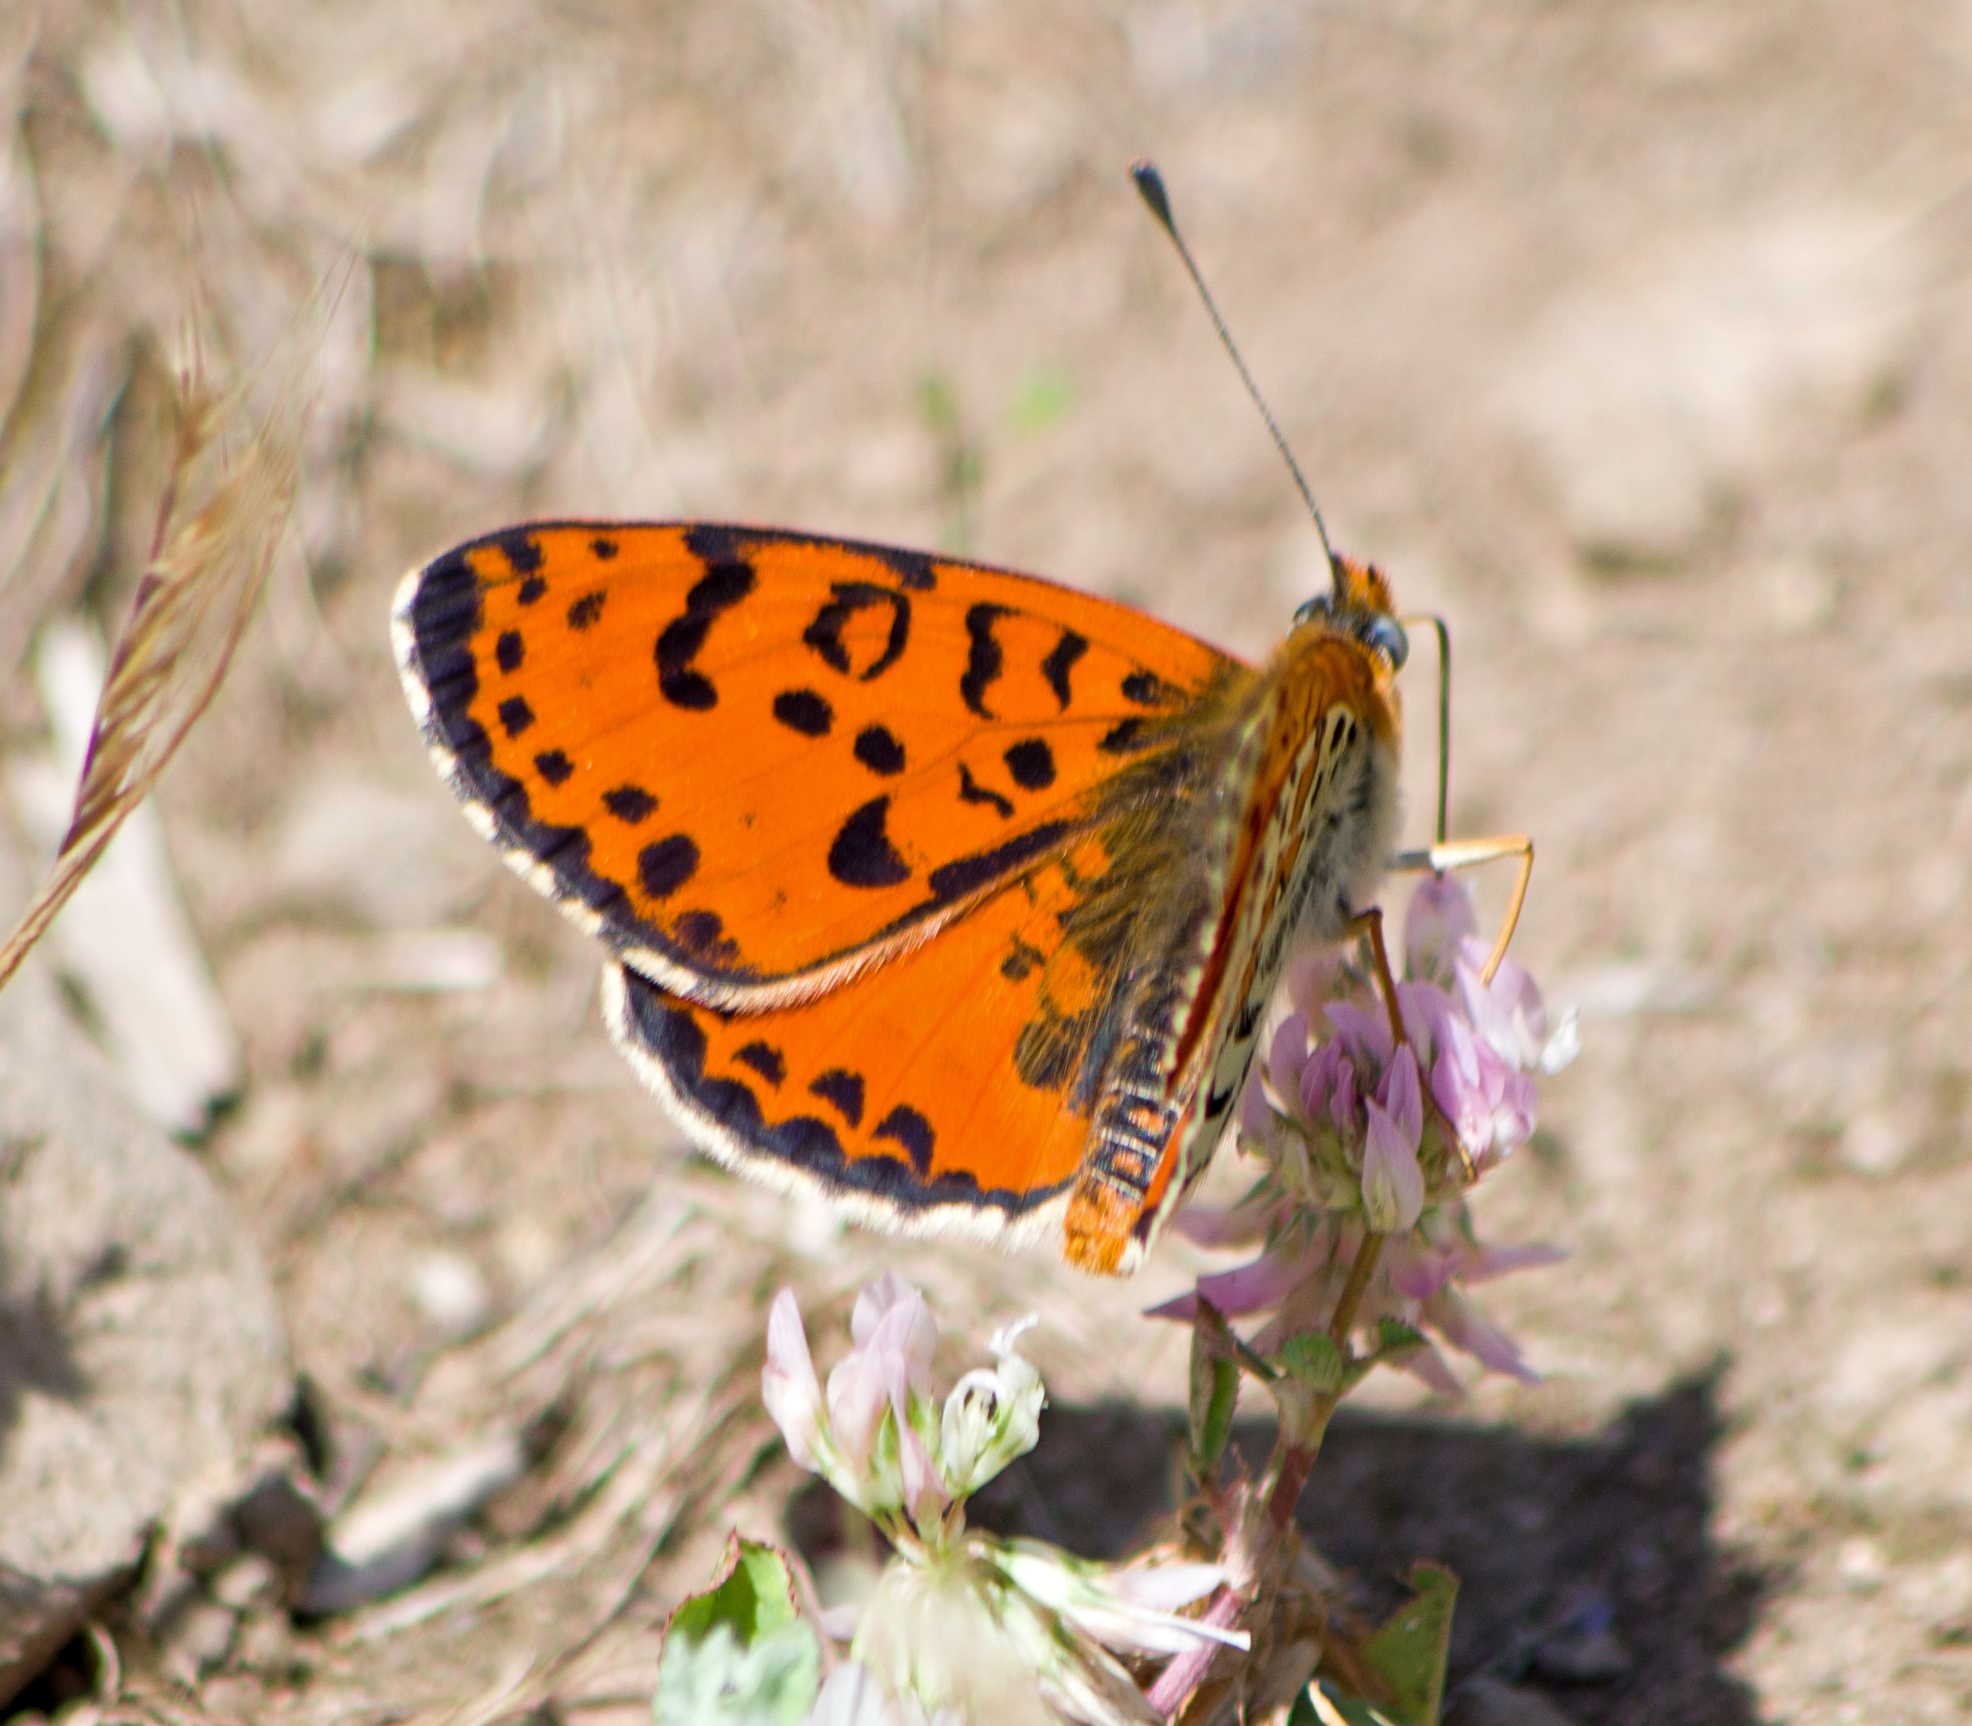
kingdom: Animalia
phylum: Arthropoda
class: Insecta
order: Lepidoptera
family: Nymphalidae
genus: Melitaea
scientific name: Melitaea didyma
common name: Spotted fritillary
